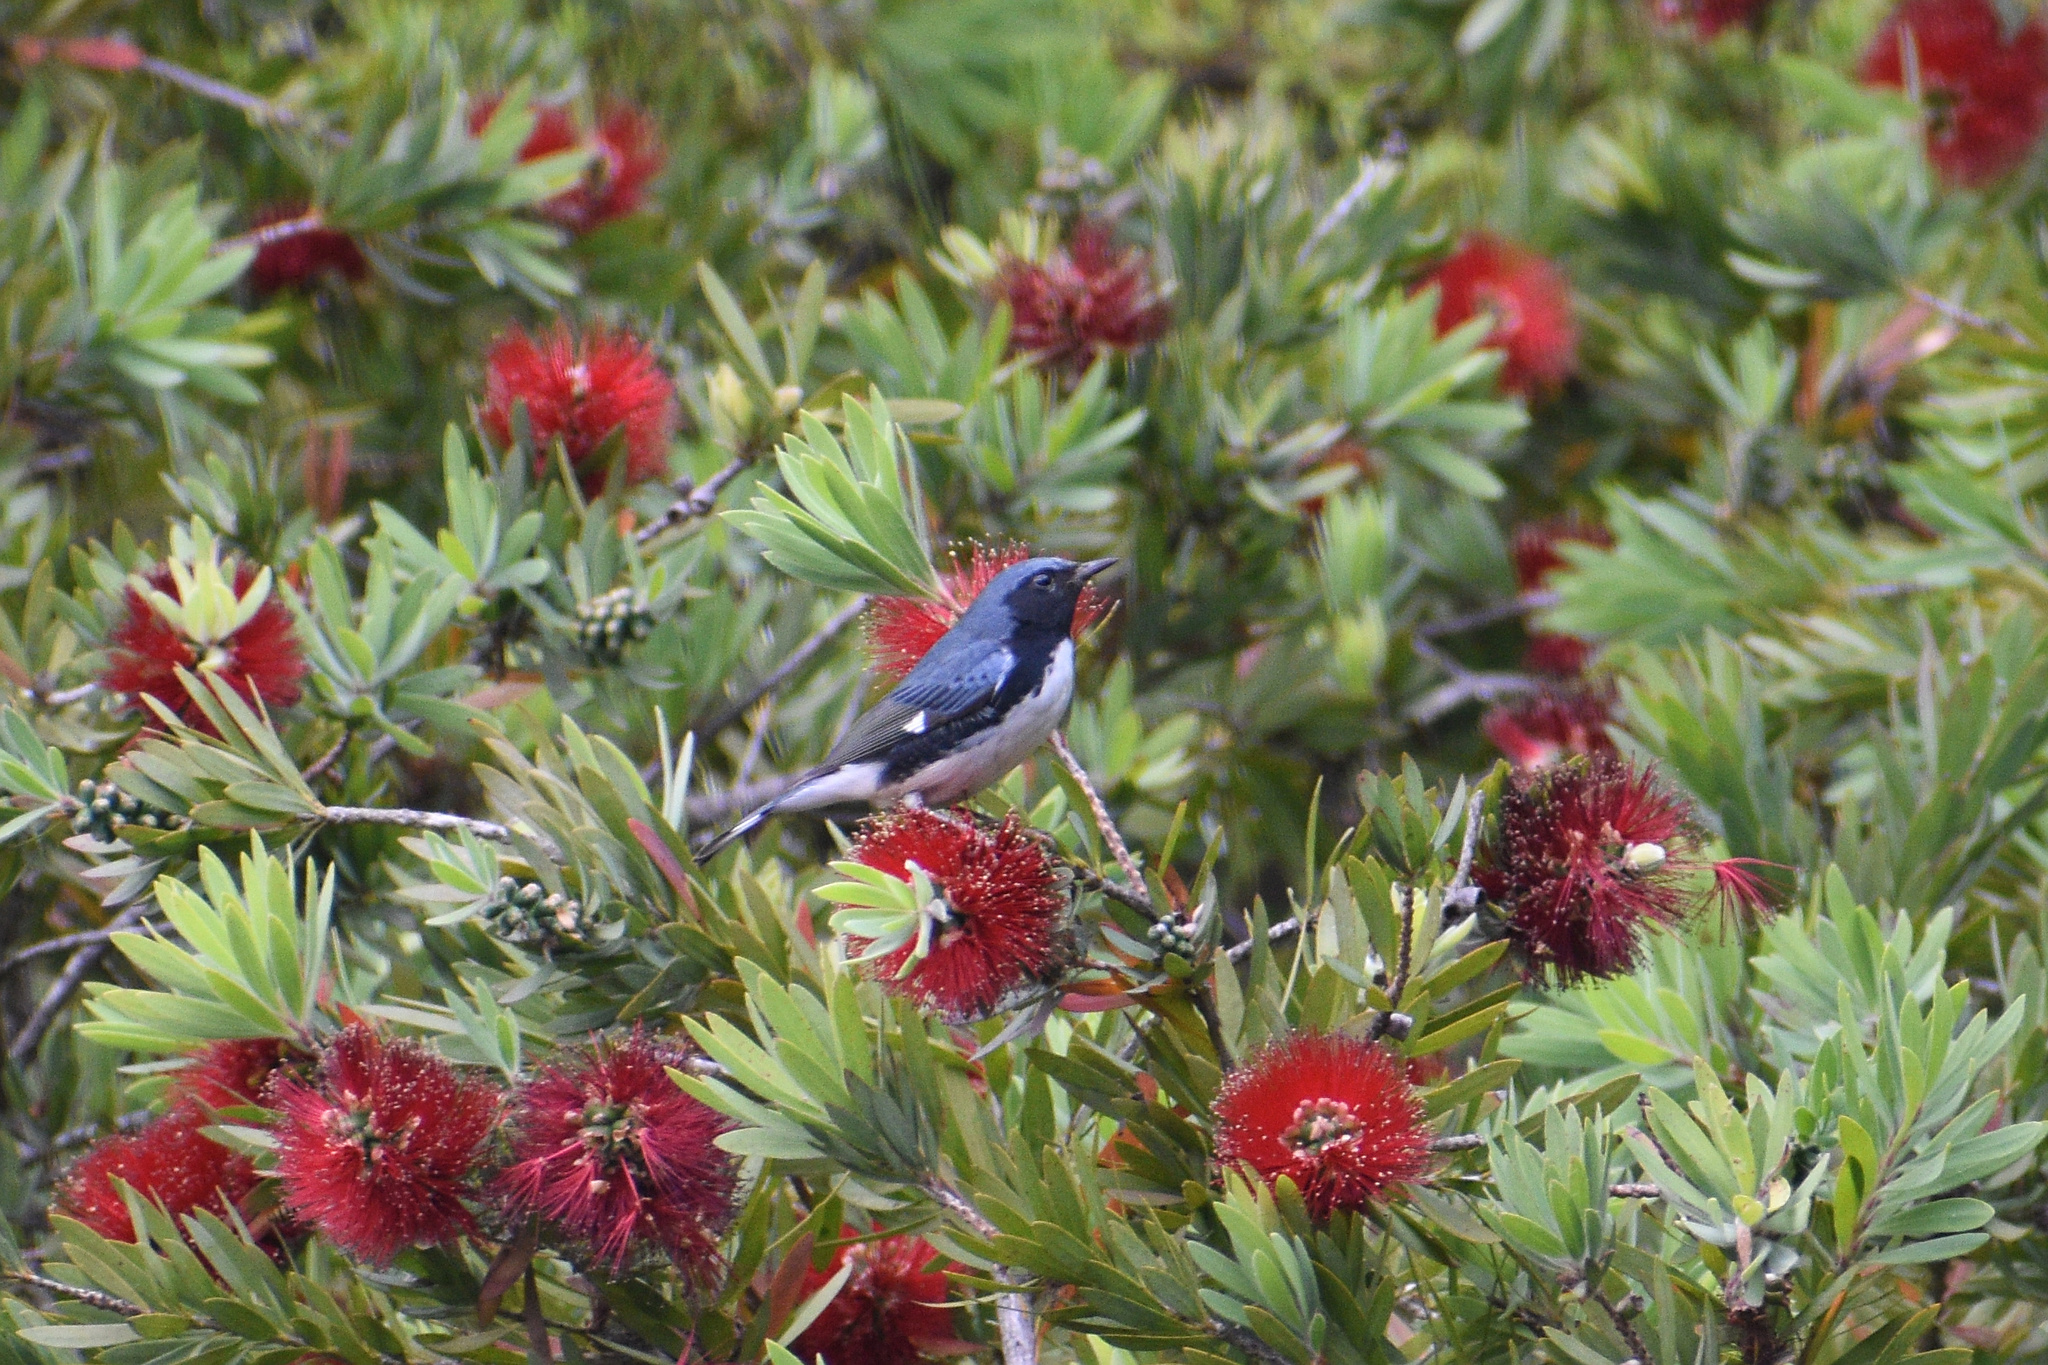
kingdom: Animalia
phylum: Chordata
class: Aves
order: Passeriformes
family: Parulidae
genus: Setophaga
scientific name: Setophaga caerulescens
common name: Black-throated blue warbler
